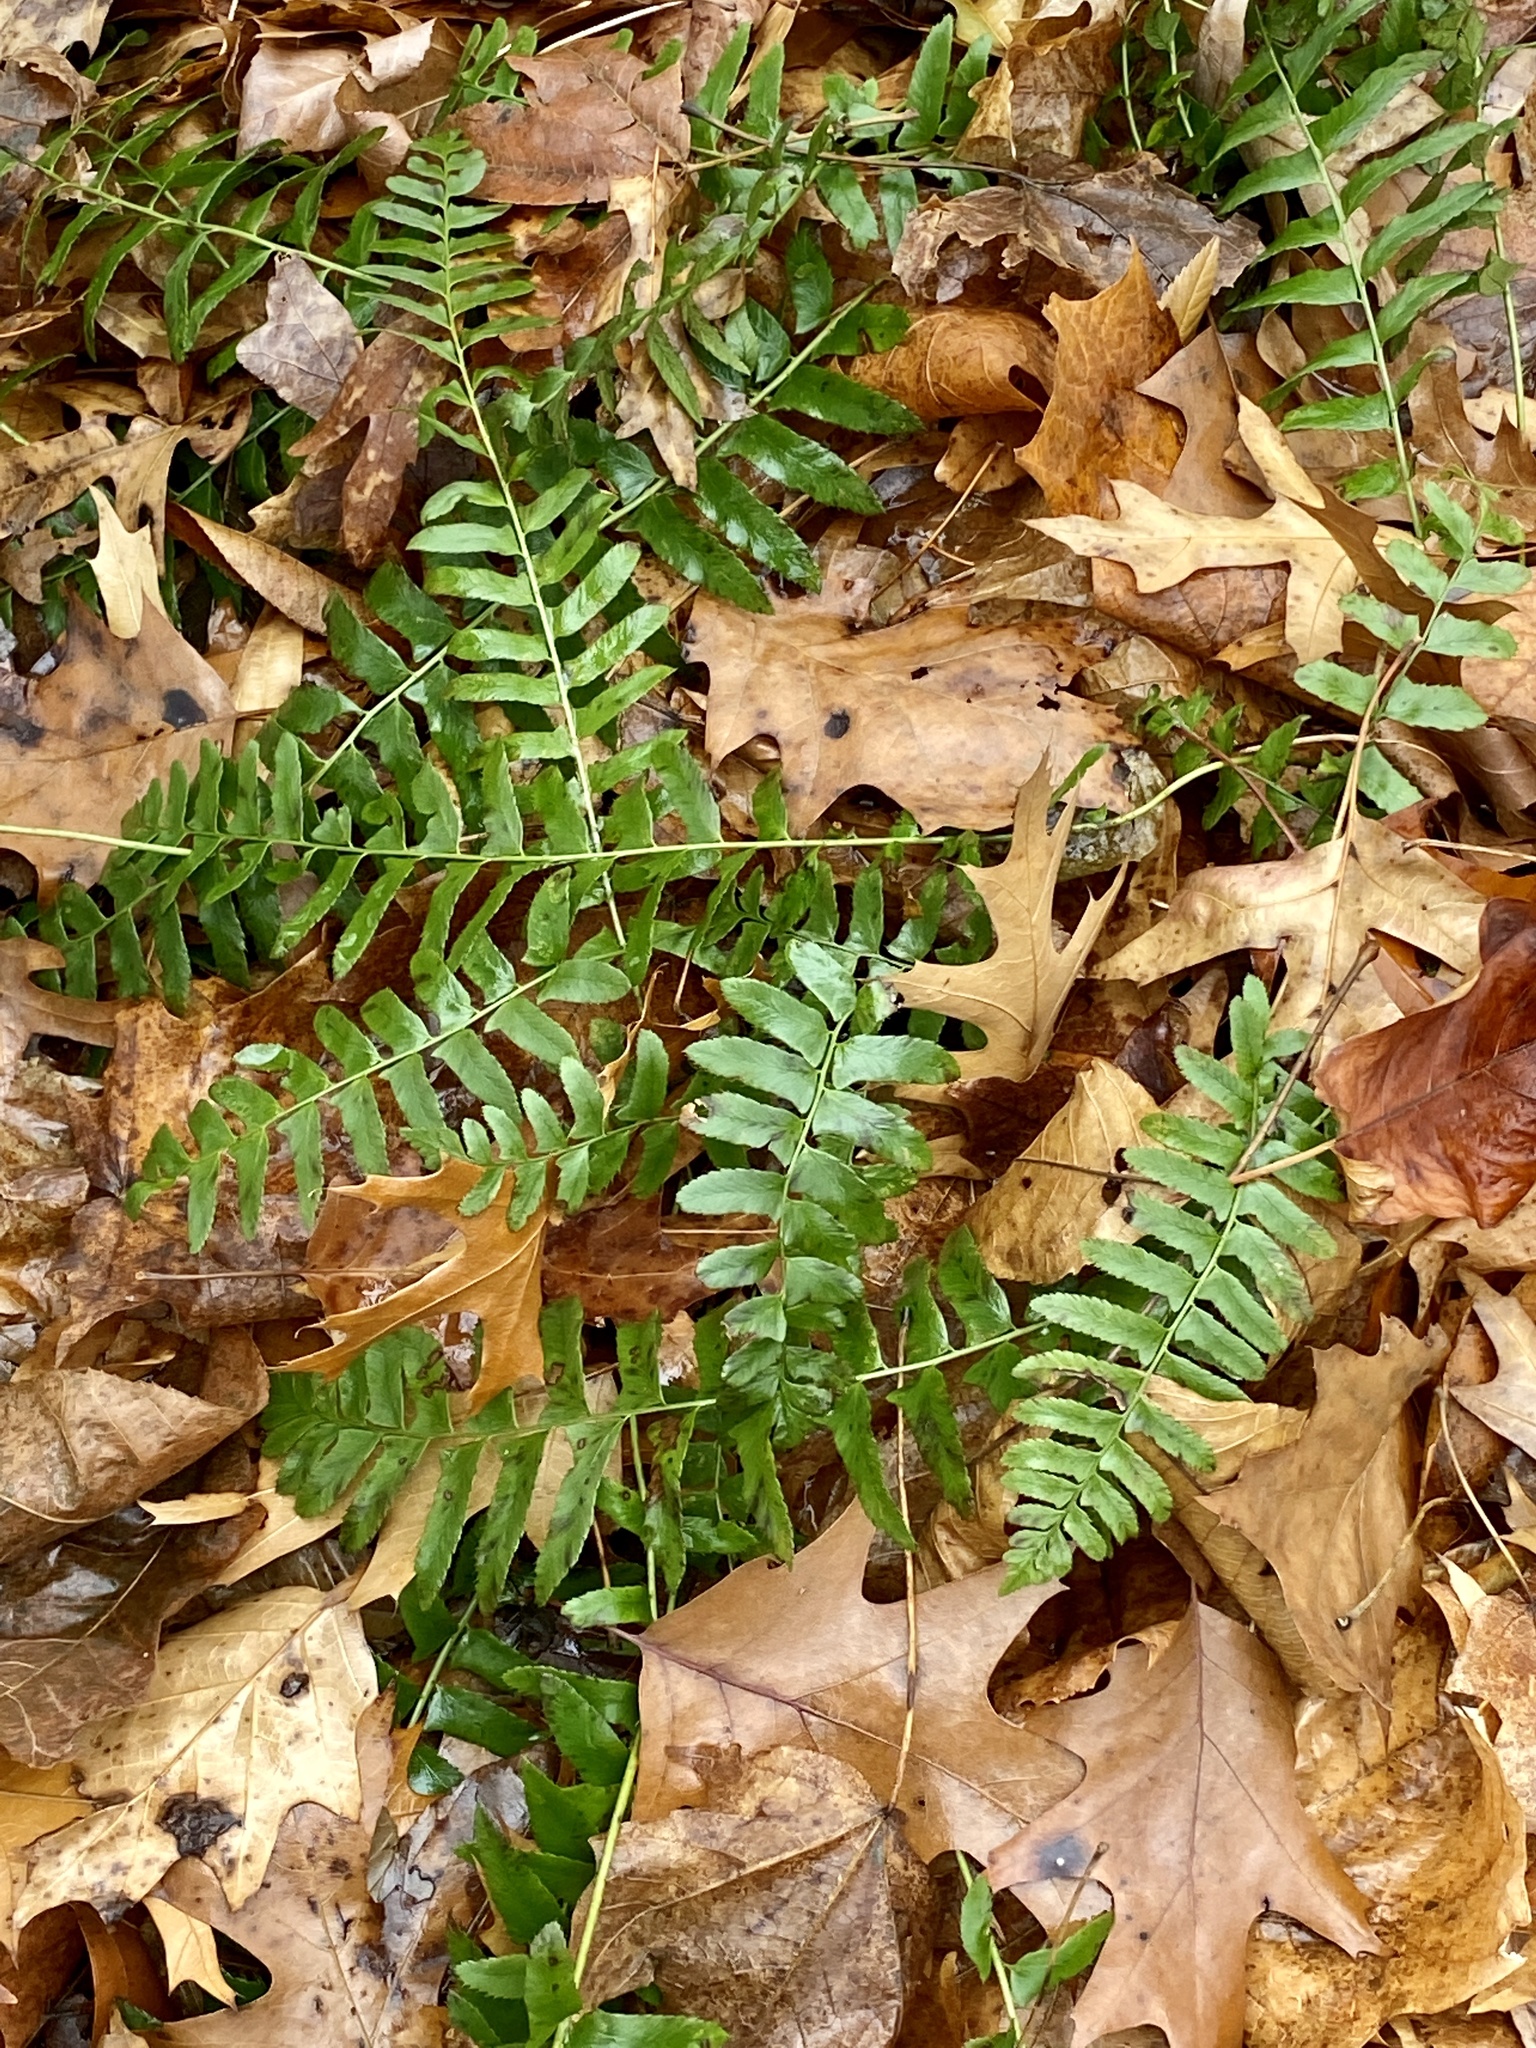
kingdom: Plantae
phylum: Tracheophyta
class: Polypodiopsida
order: Polypodiales
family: Dryopteridaceae
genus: Polystichum
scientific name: Polystichum acrostichoides
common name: Christmas fern
